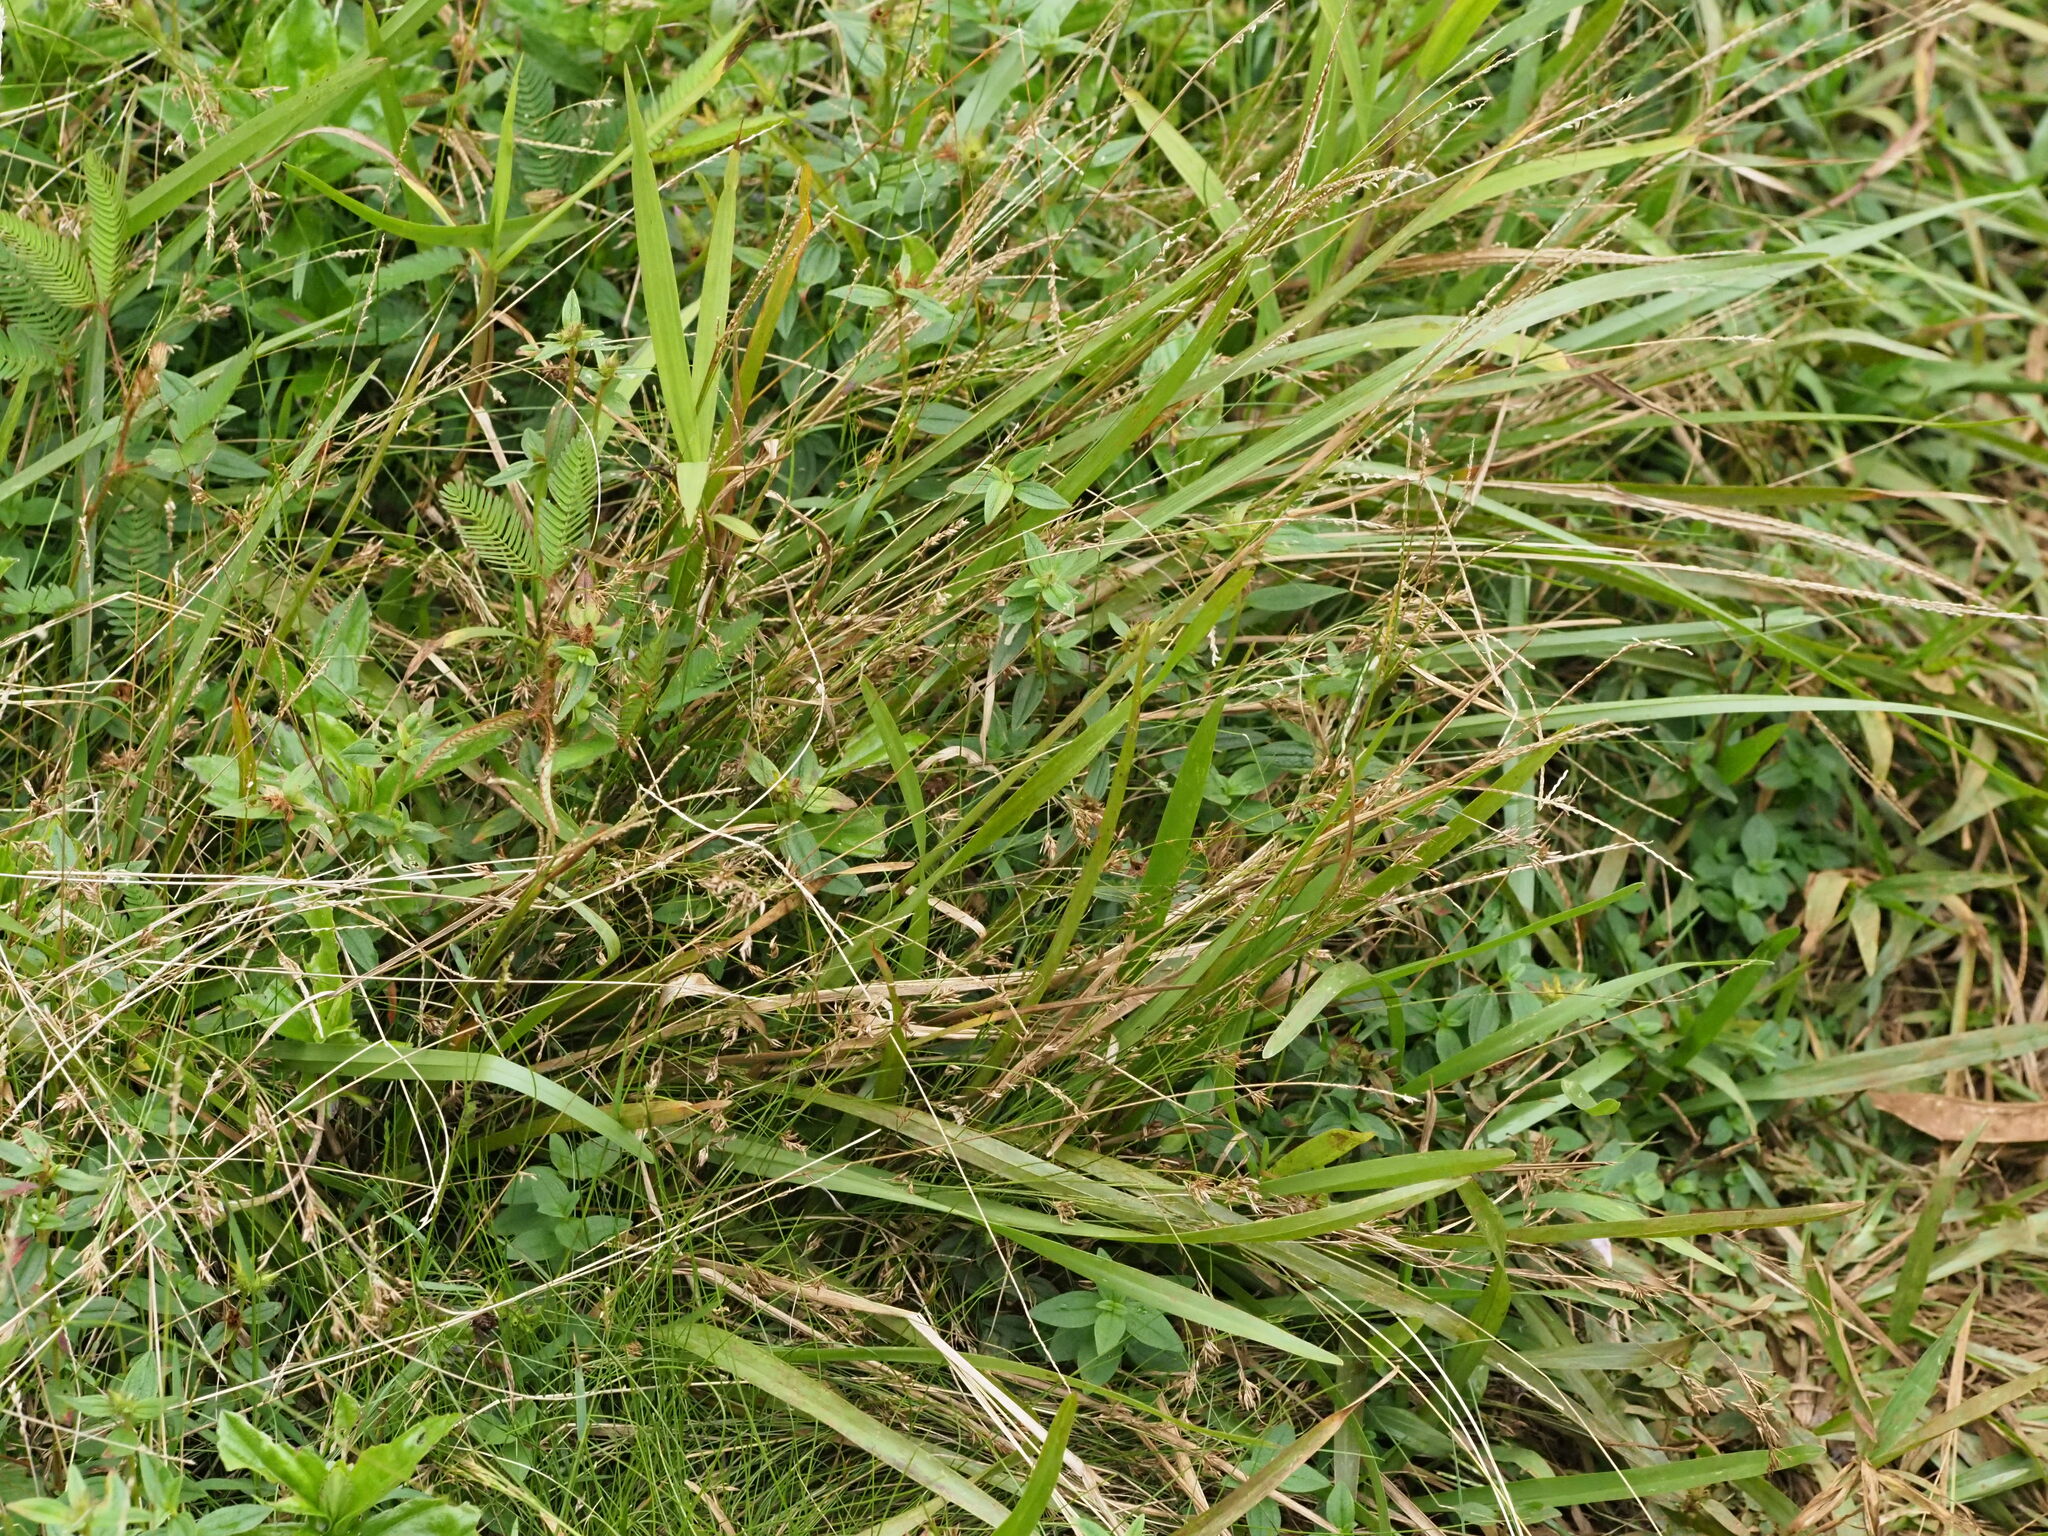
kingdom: Plantae
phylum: Tracheophyta
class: Liliopsida
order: Poales
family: Poaceae
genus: Axonopus
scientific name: Axonopus fissifolius
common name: Common carpetgrass
